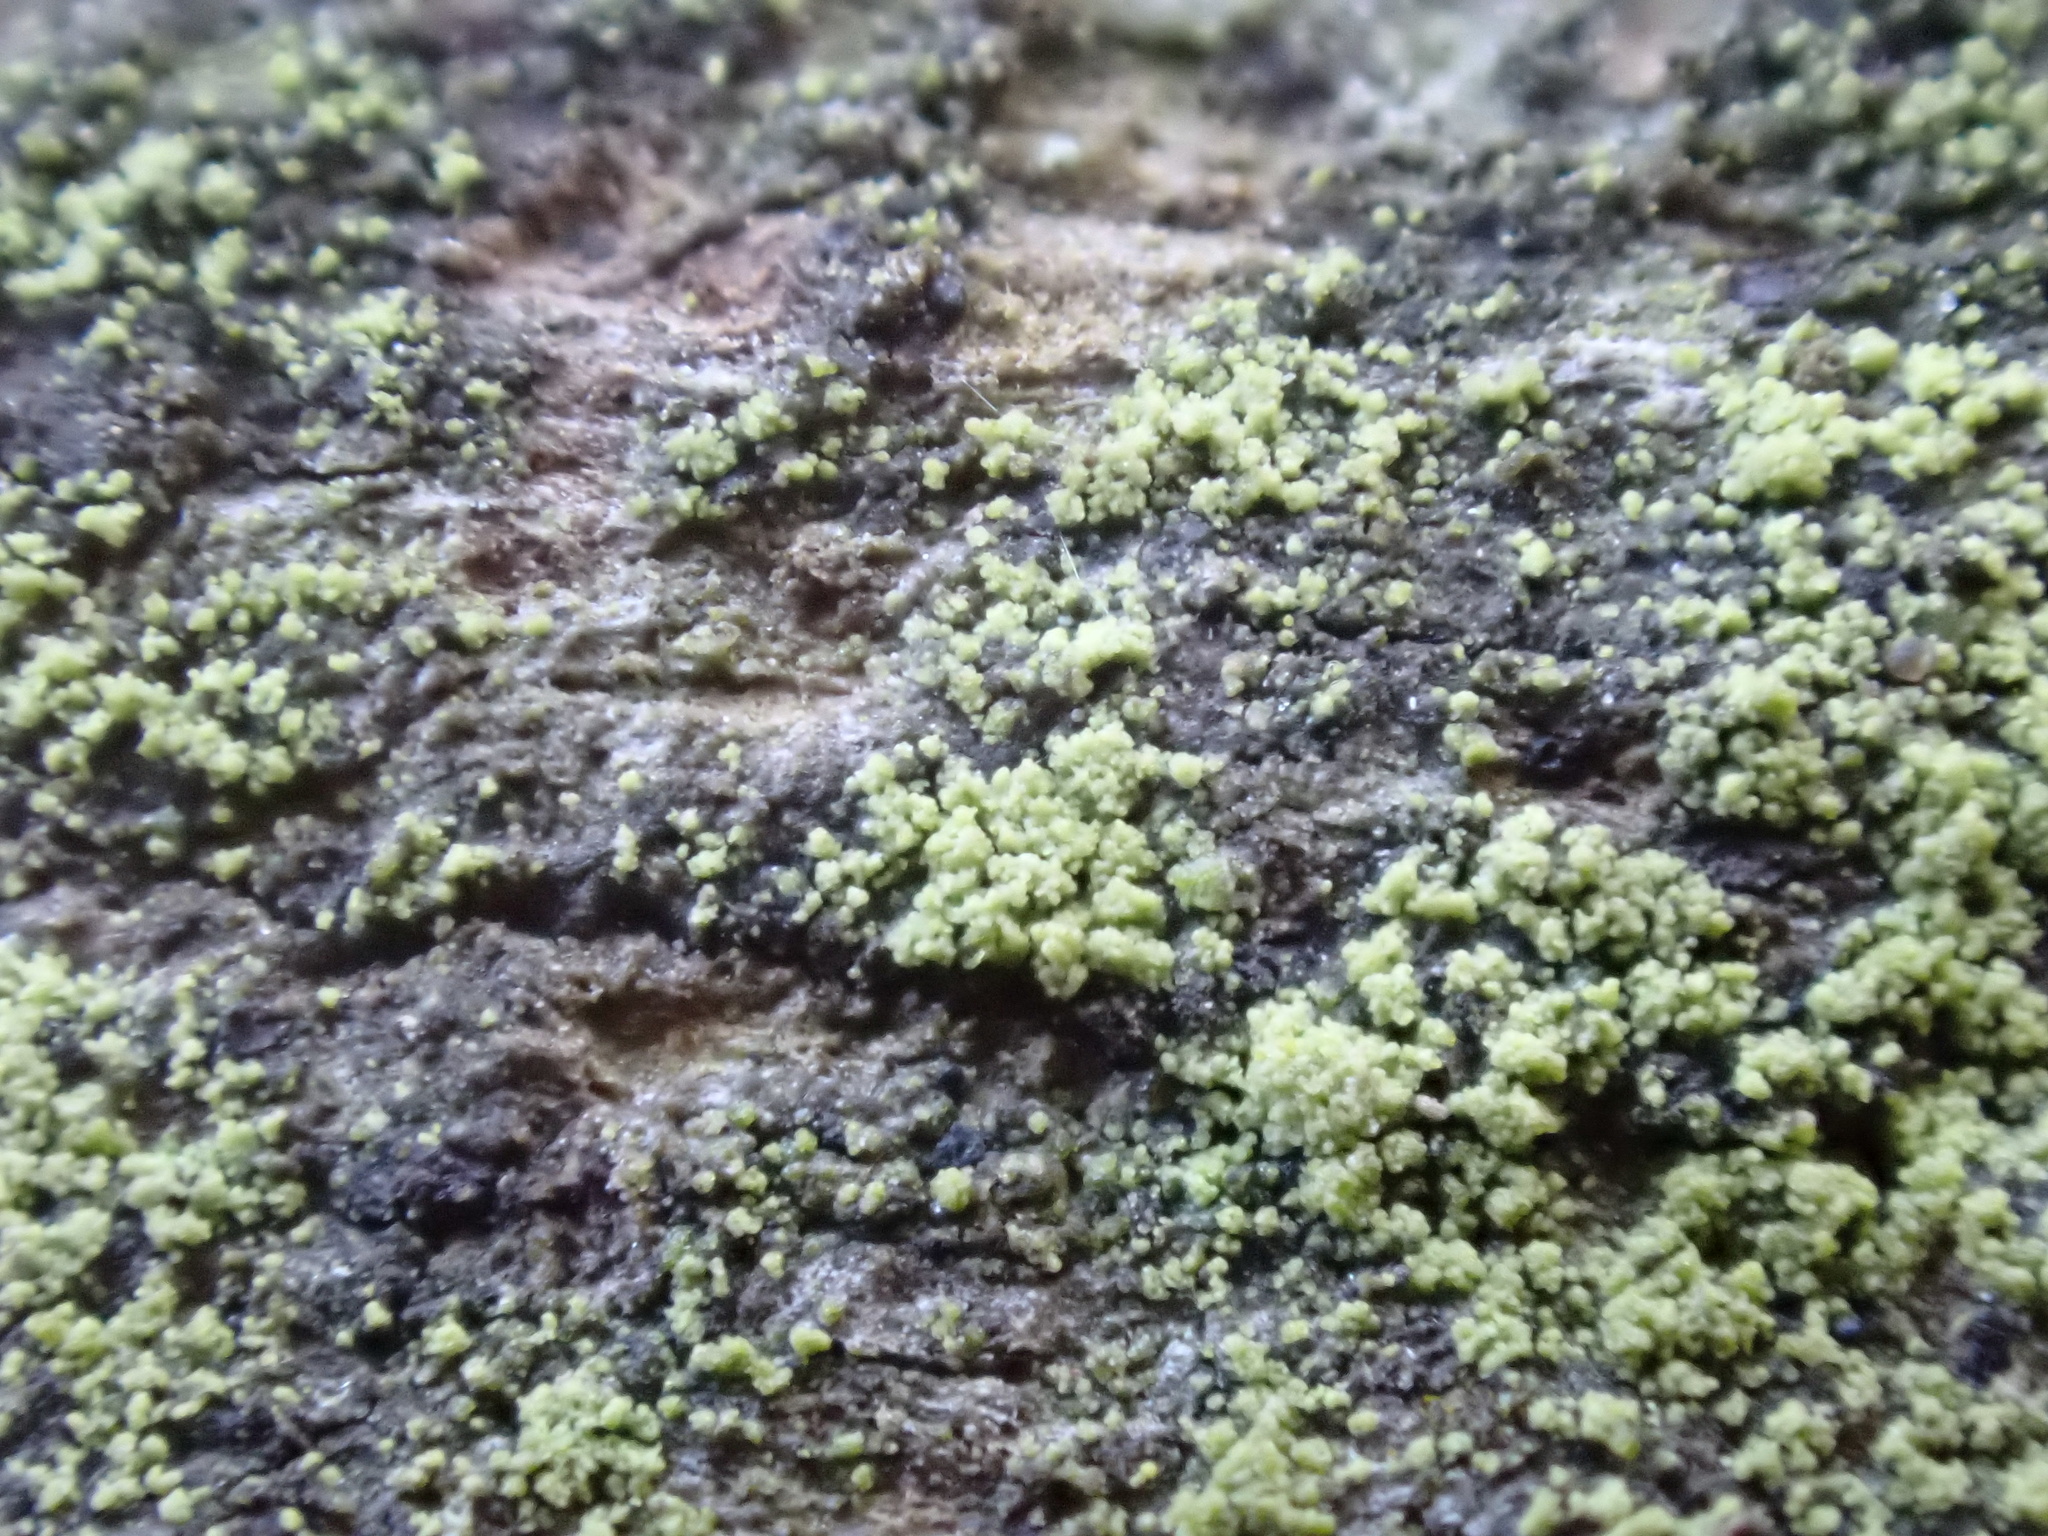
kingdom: Fungi
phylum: Ascomycota
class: Lecanoromycetes
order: Lecanorales
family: Byssolomataceae
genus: Micarea
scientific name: Micarea viridileprosa
